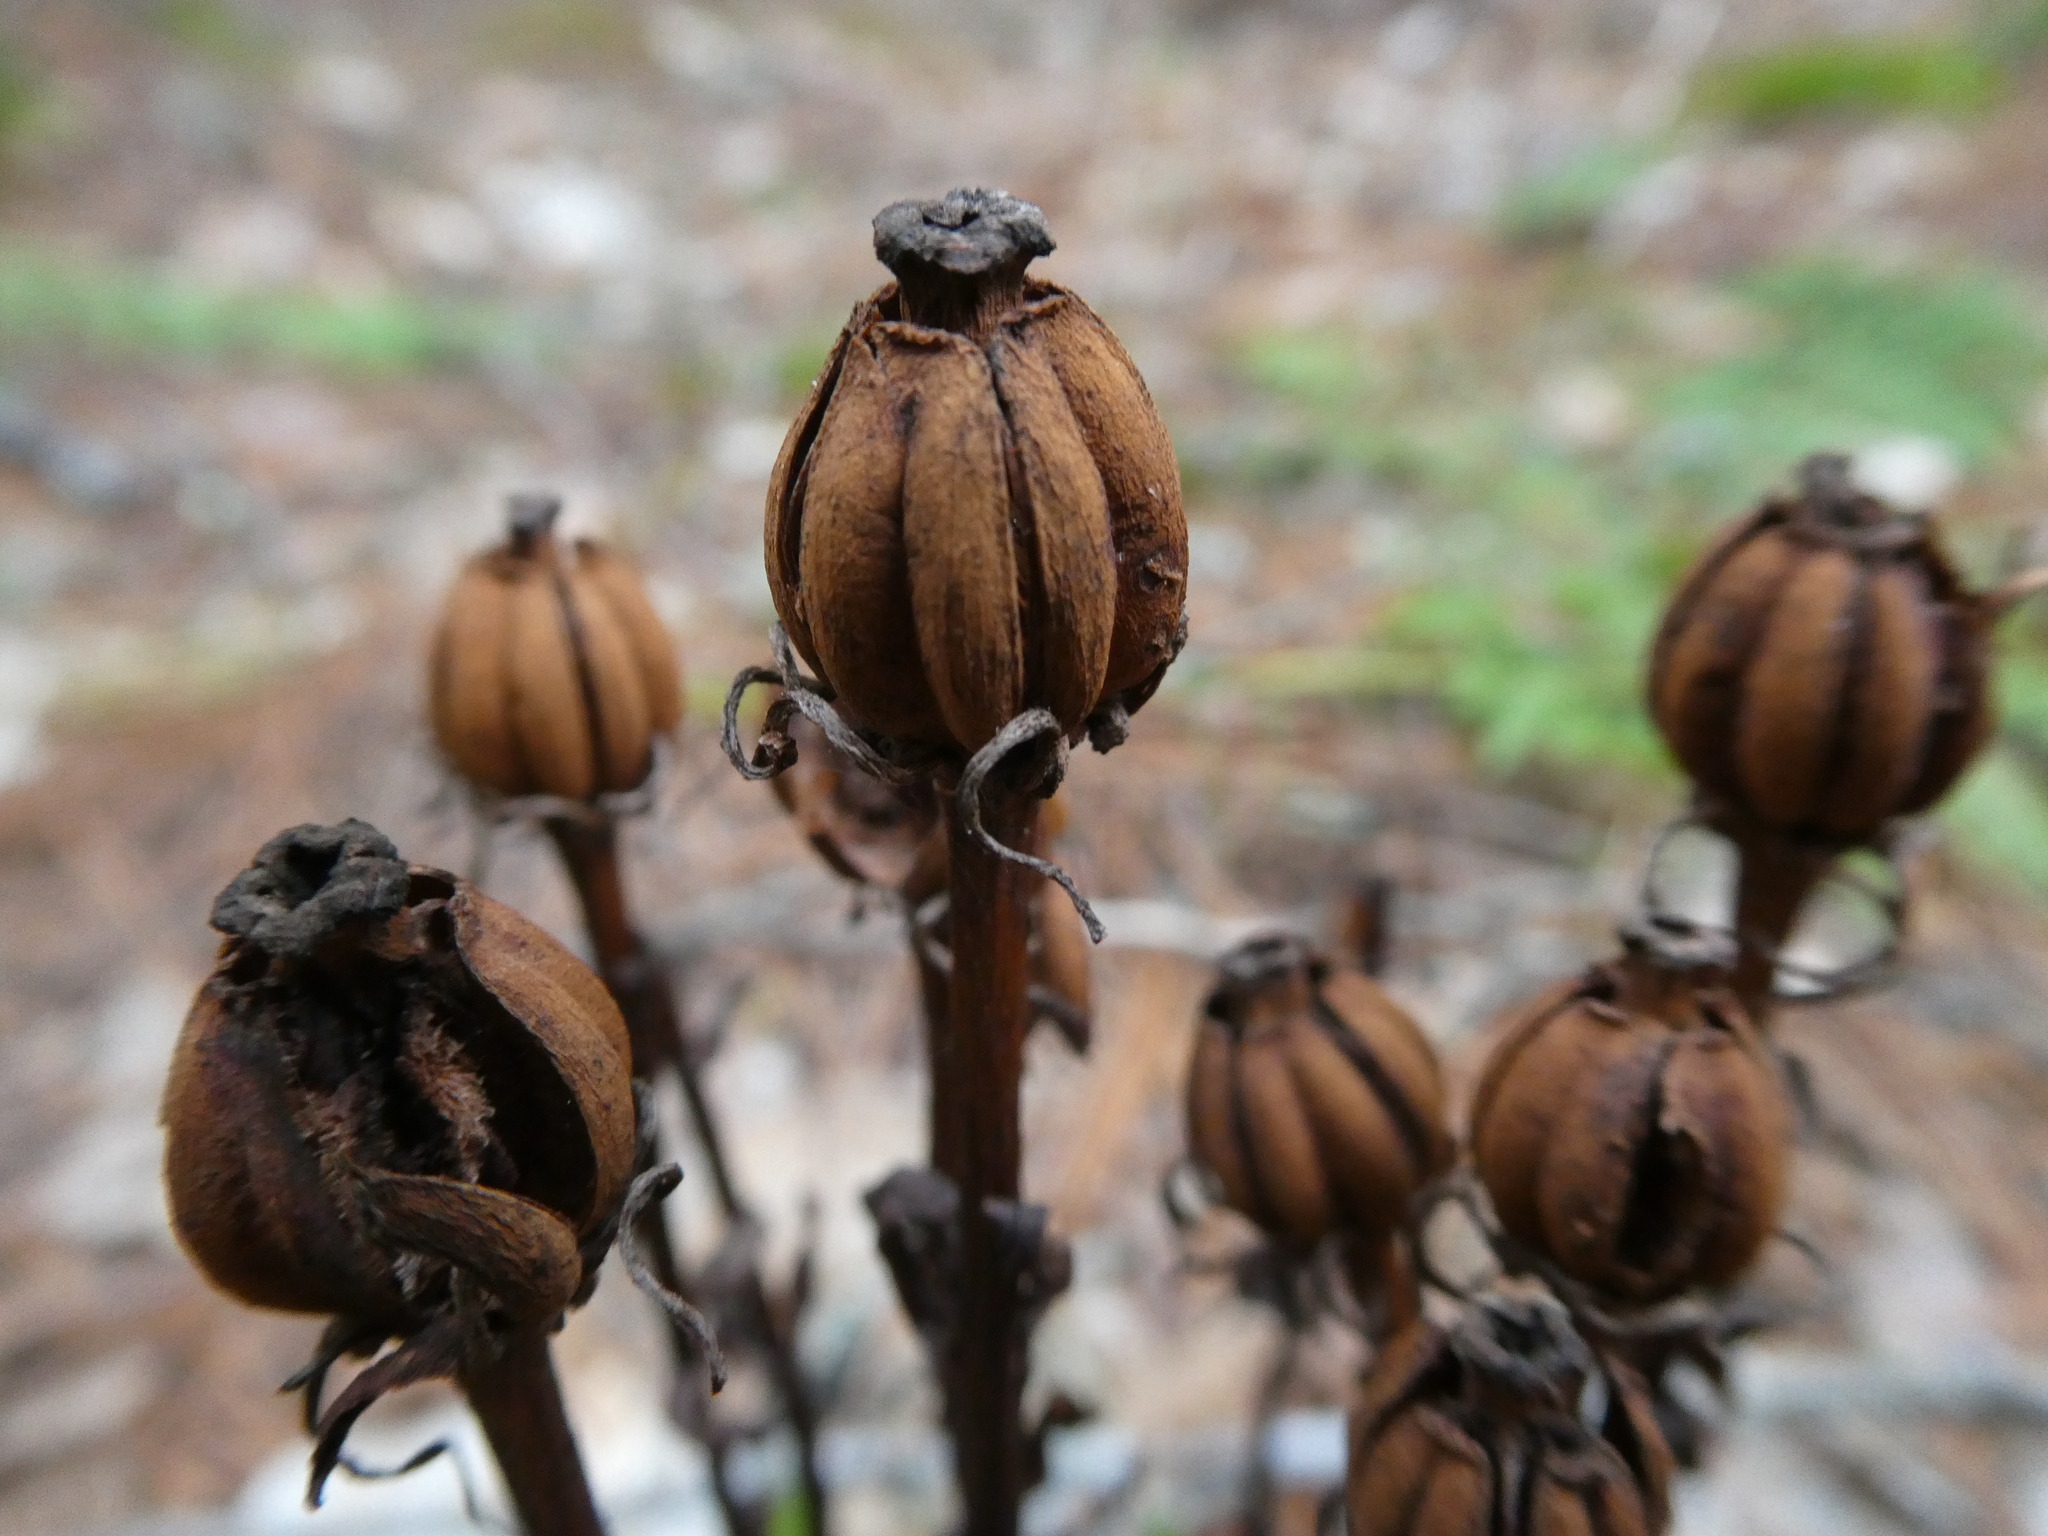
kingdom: Plantae
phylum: Tracheophyta
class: Magnoliopsida
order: Ericales
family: Ericaceae
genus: Monotropa
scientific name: Monotropa uniflora
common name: Convulsion root
